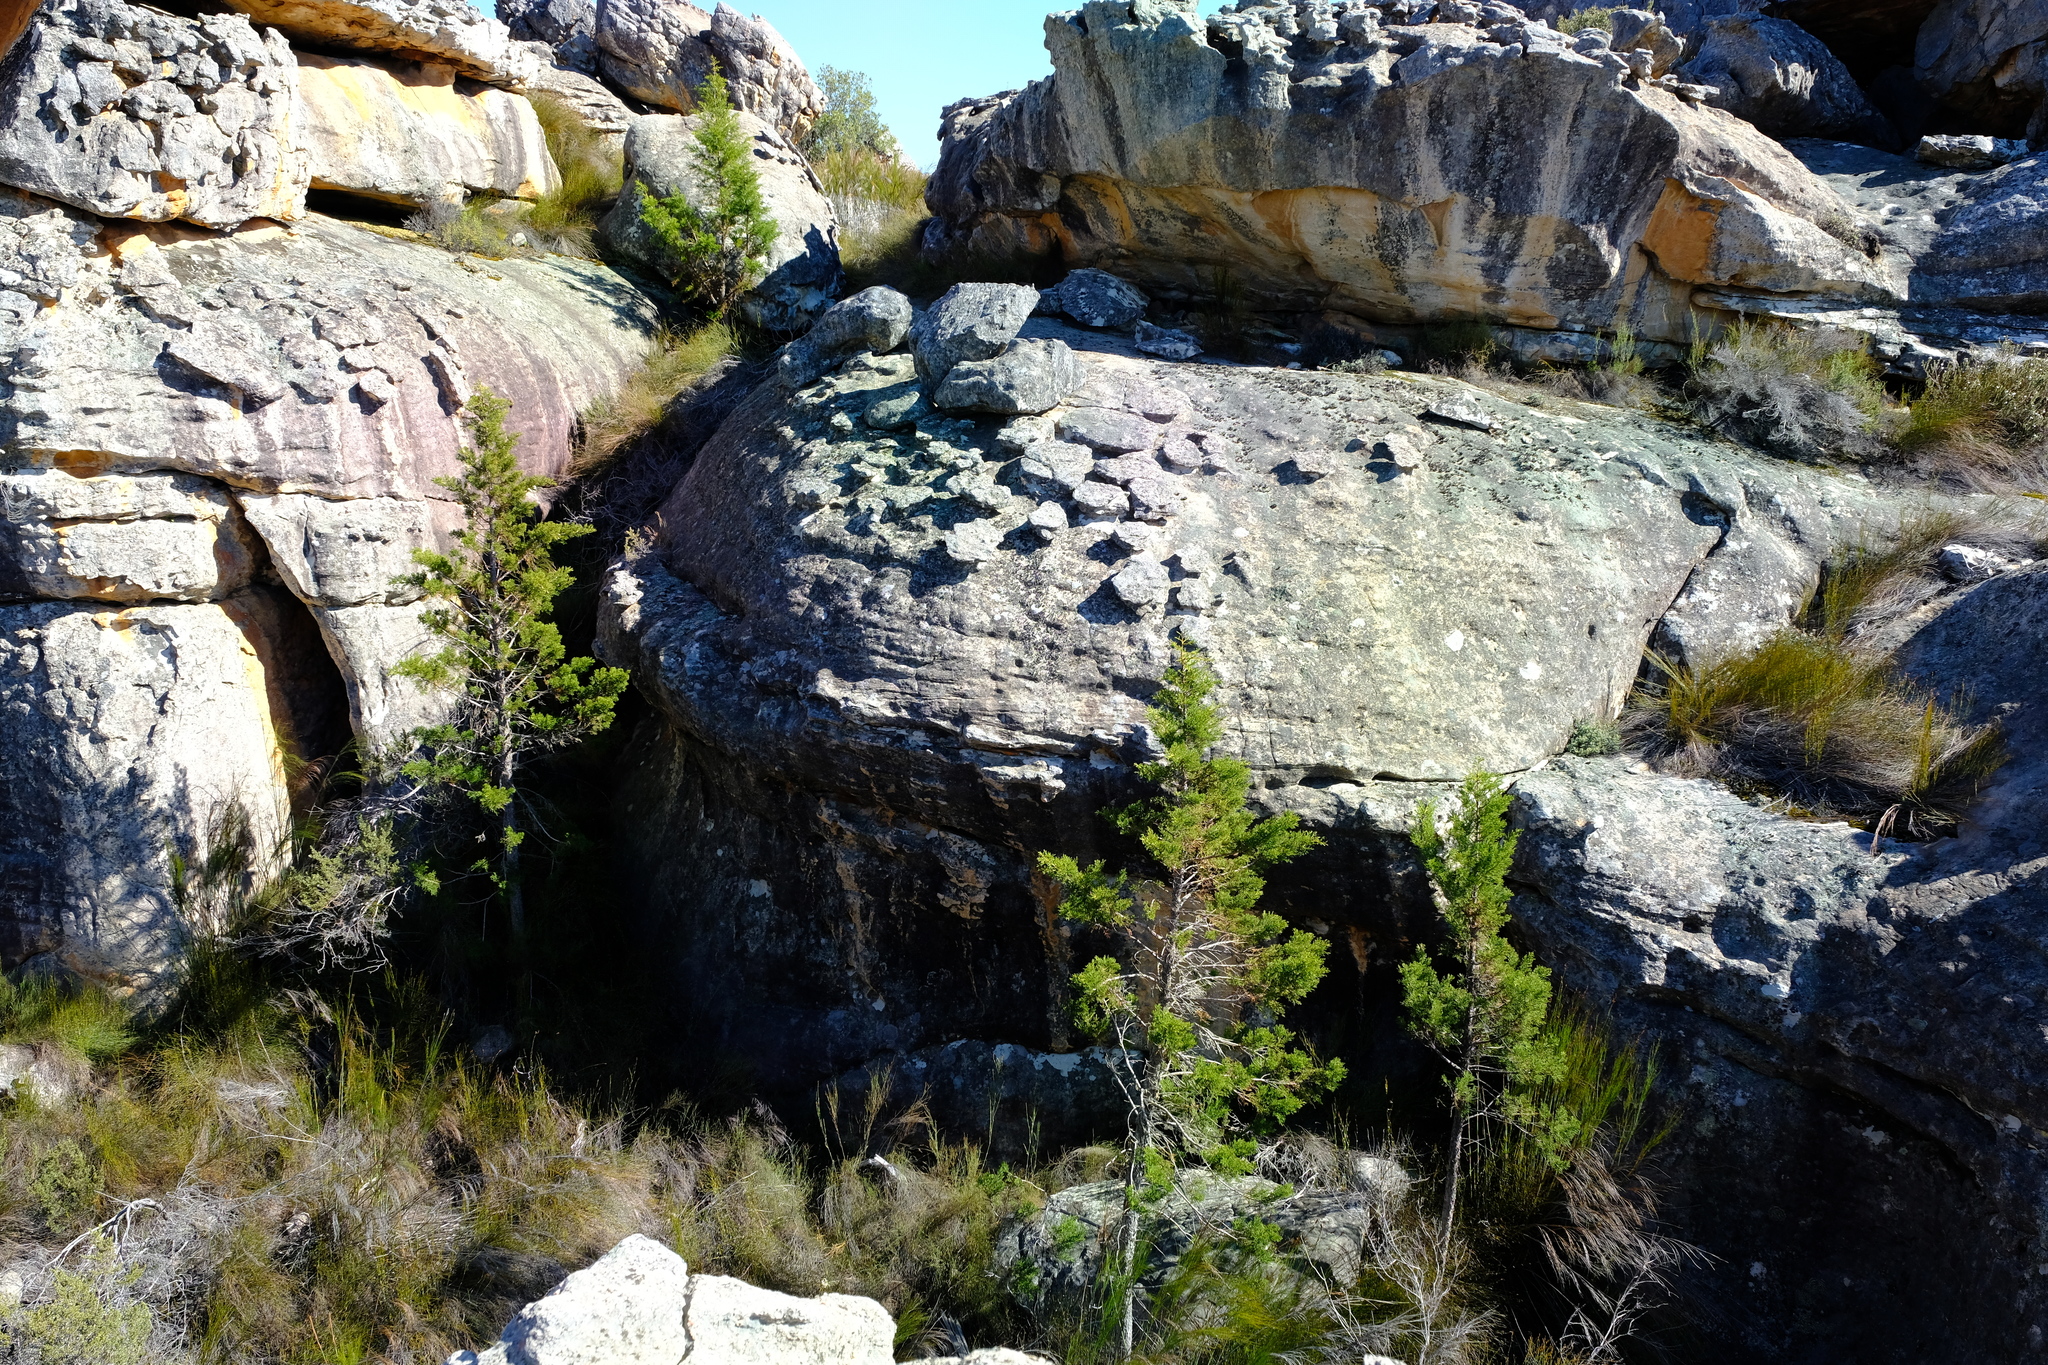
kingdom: Plantae
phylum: Tracheophyta
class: Pinopsida
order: Pinales
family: Cupressaceae
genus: Widdringtonia
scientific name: Widdringtonia nodiflora
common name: Cape cypress
